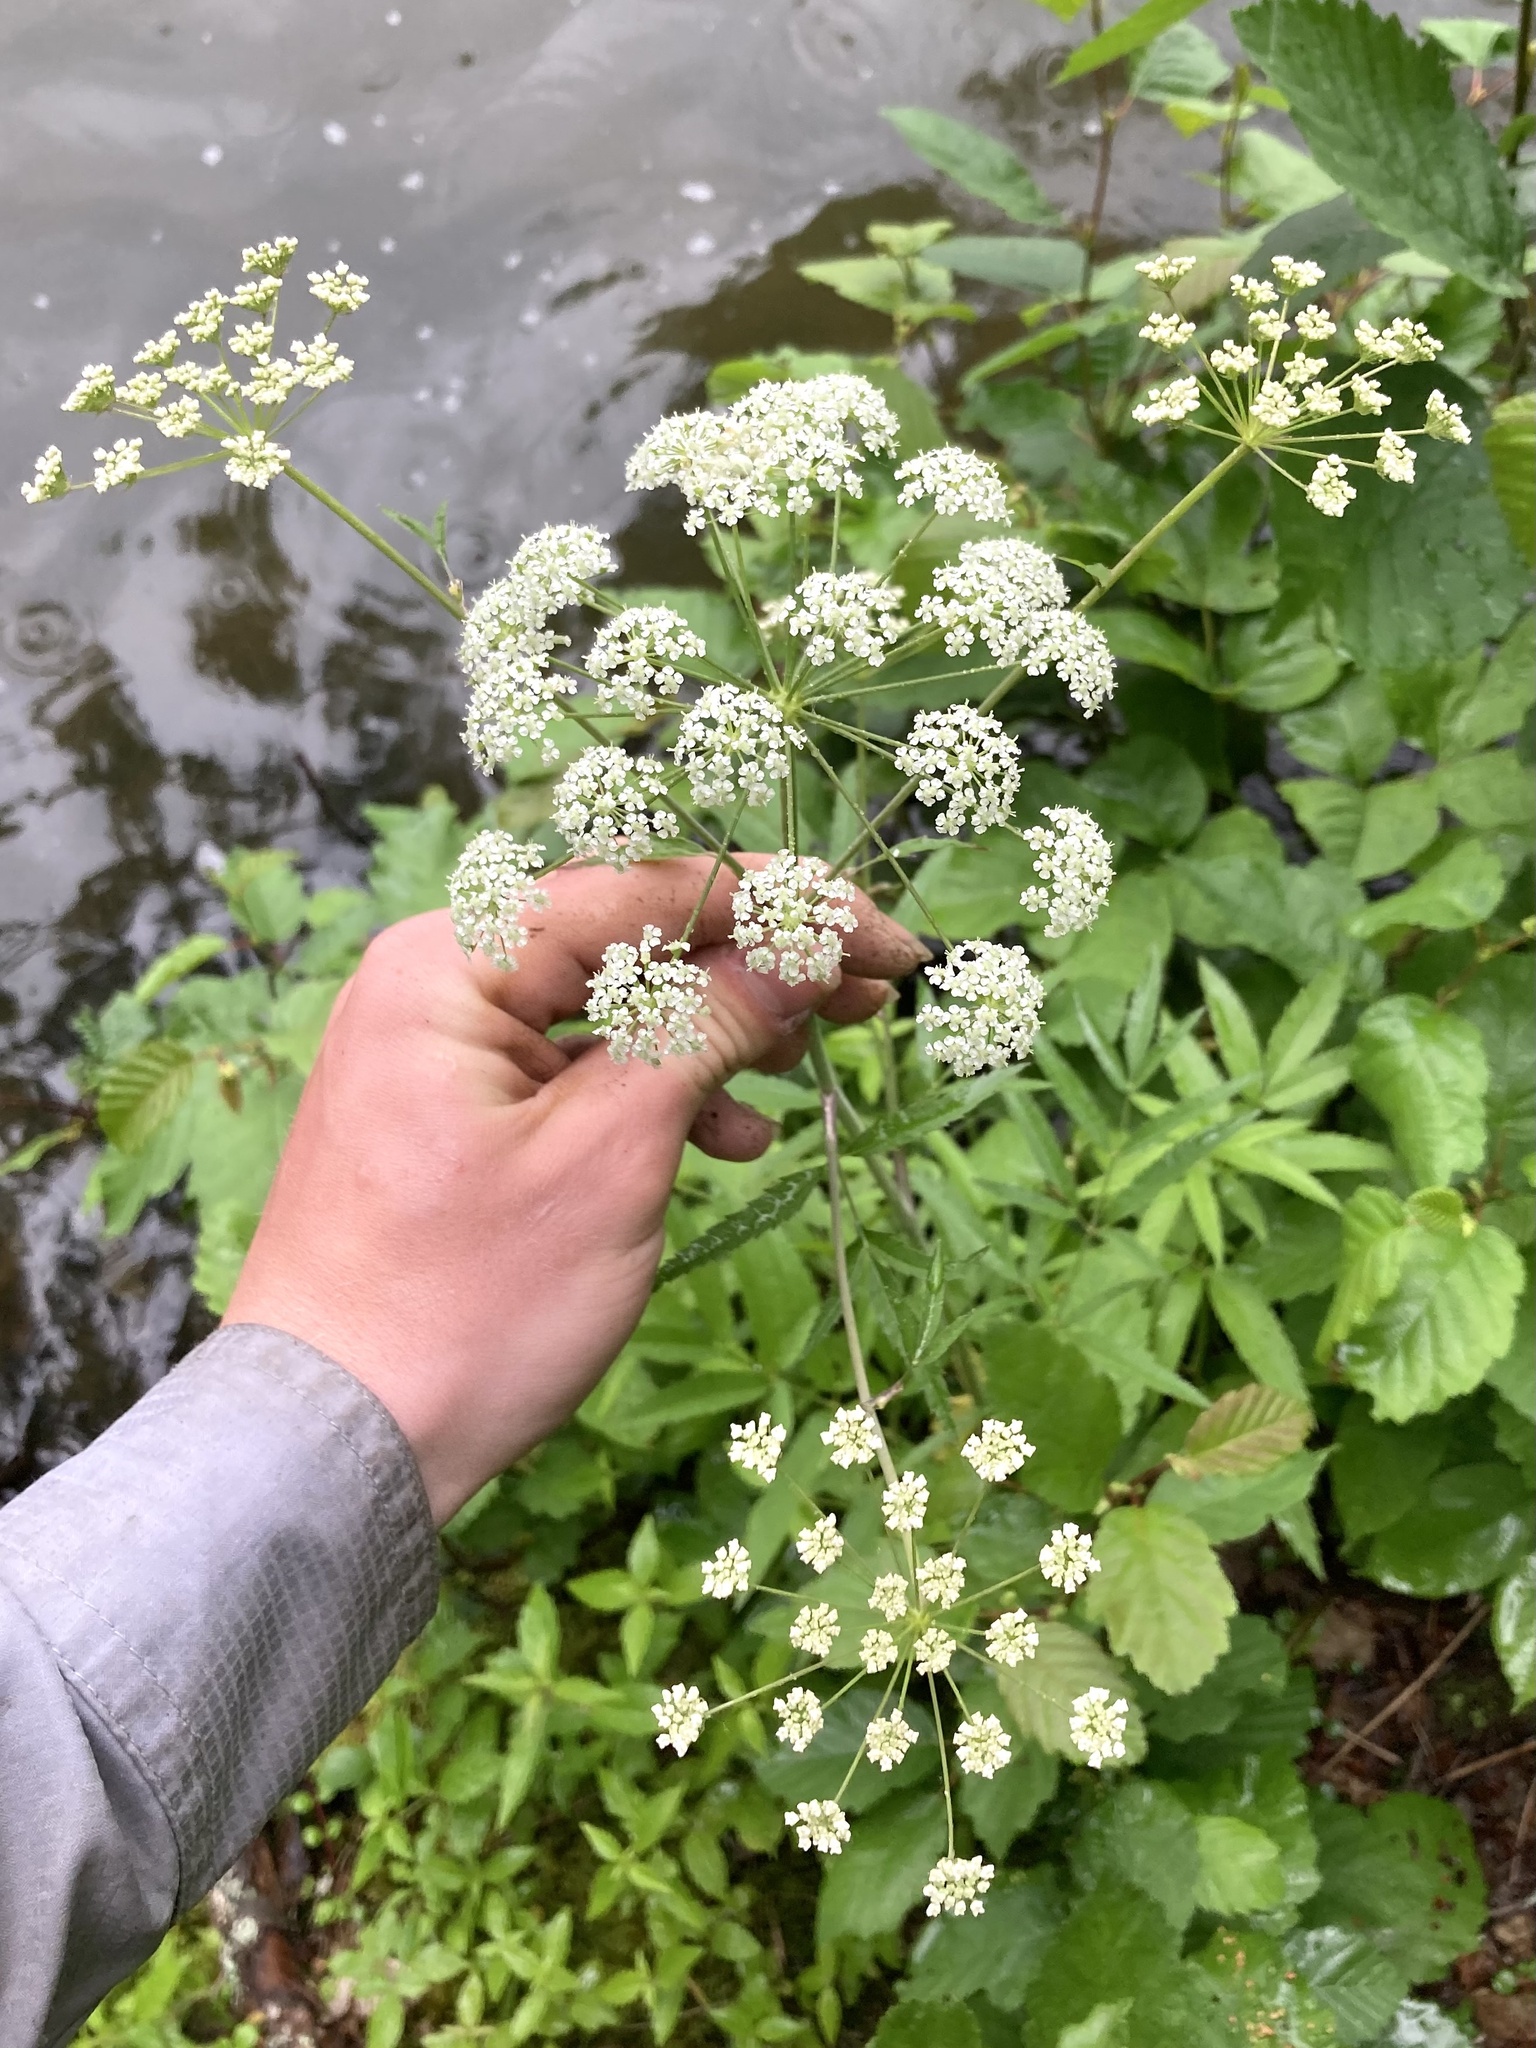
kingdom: Plantae
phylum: Tracheophyta
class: Magnoliopsida
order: Apiales
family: Apiaceae
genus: Cicuta
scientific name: Cicuta maculata
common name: Spotted cowbane
